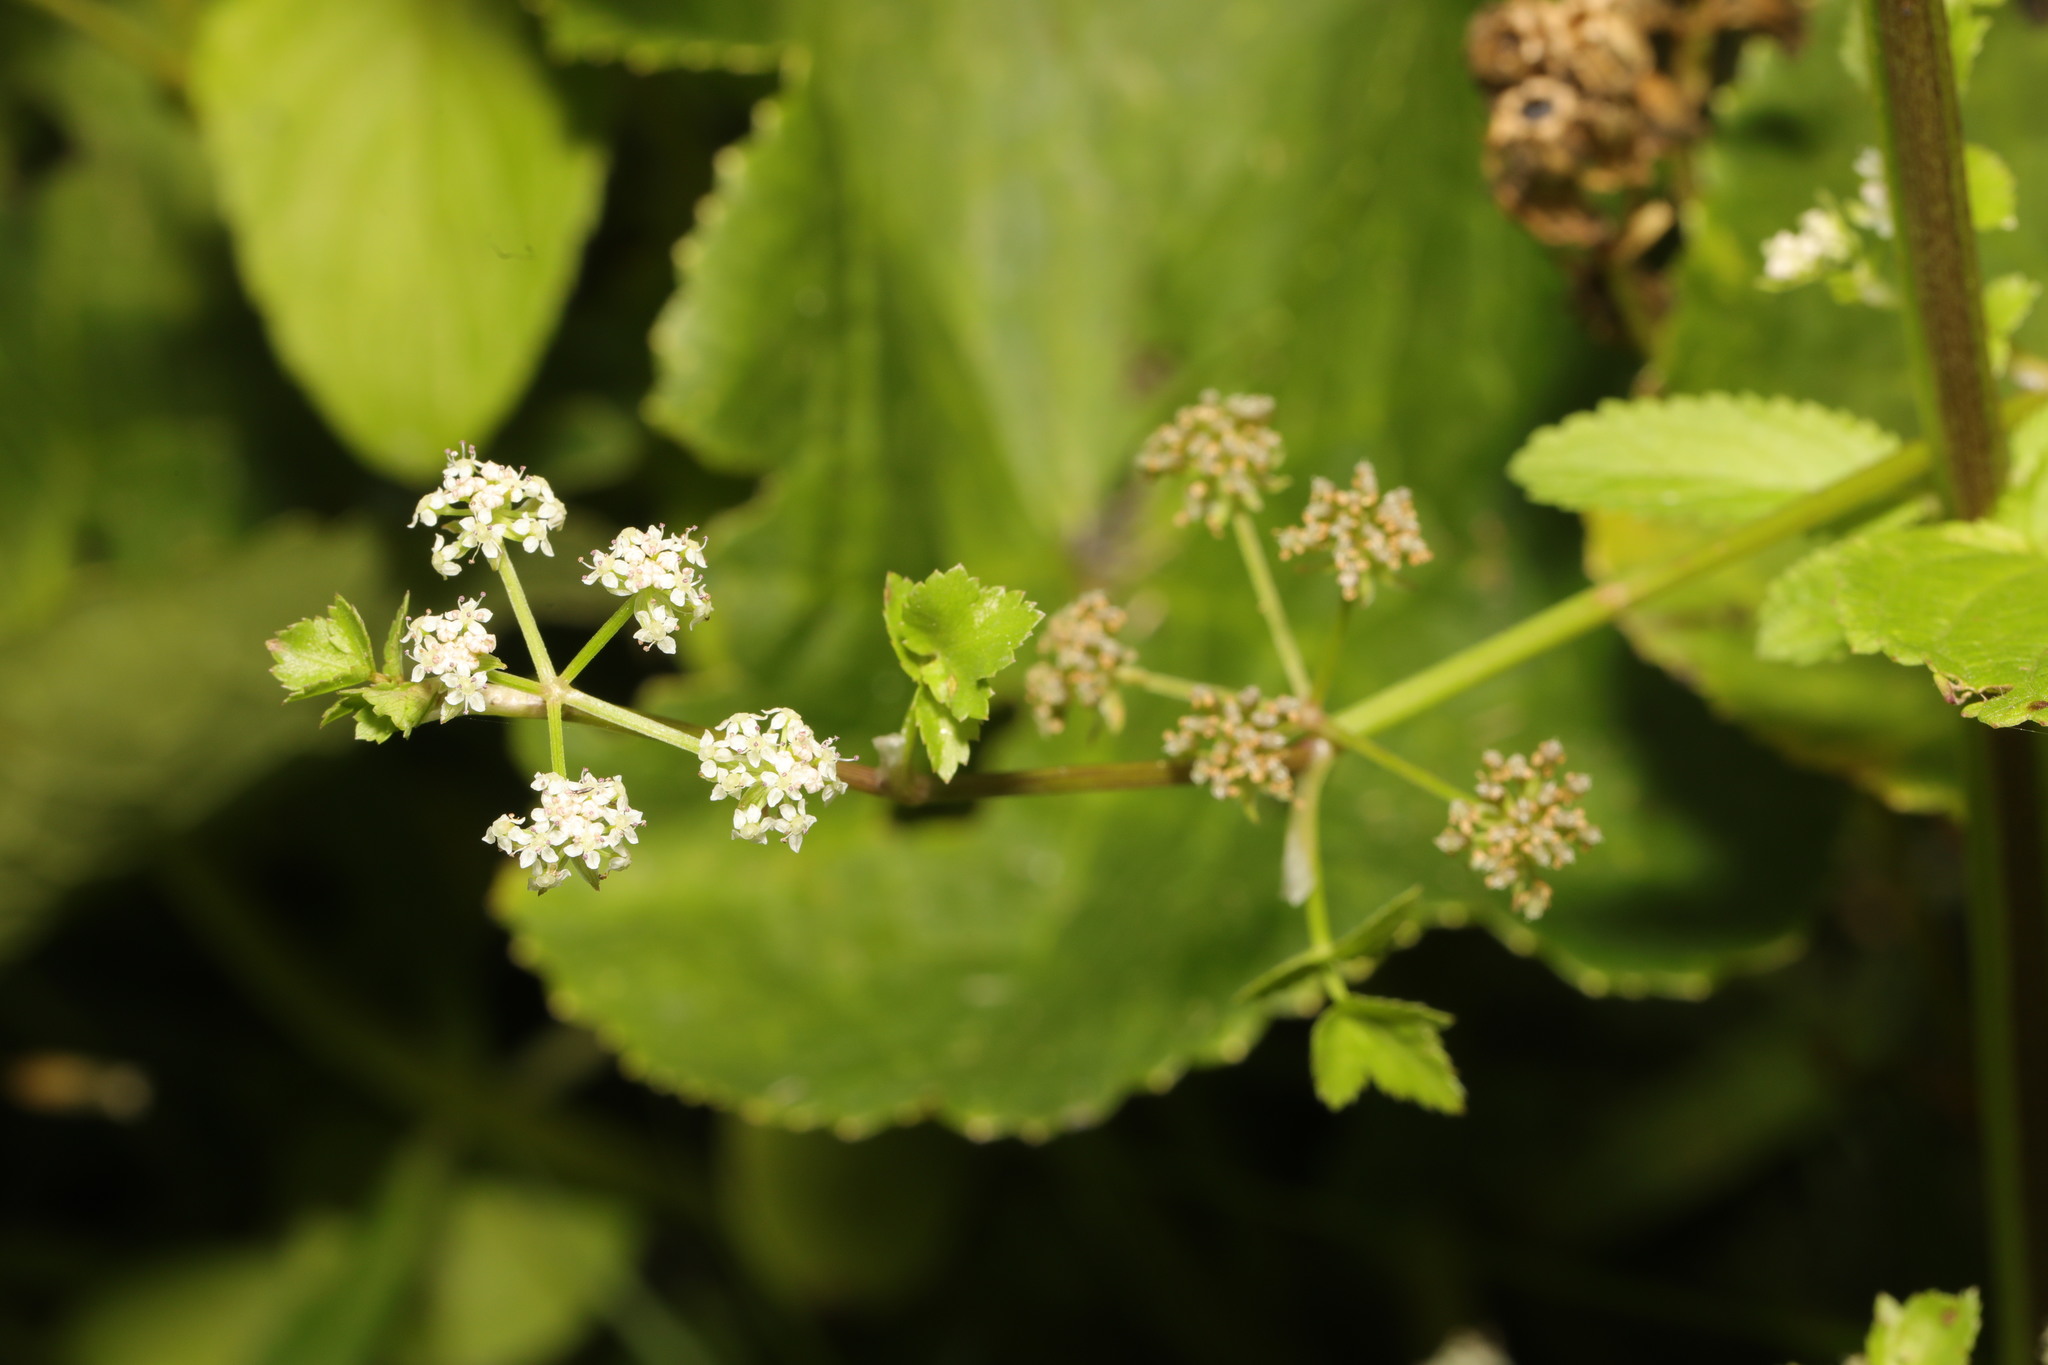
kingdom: Plantae
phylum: Tracheophyta
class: Magnoliopsida
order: Apiales
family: Apiaceae
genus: Helosciadium
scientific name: Helosciadium nodiflorum
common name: Fool's-watercress
